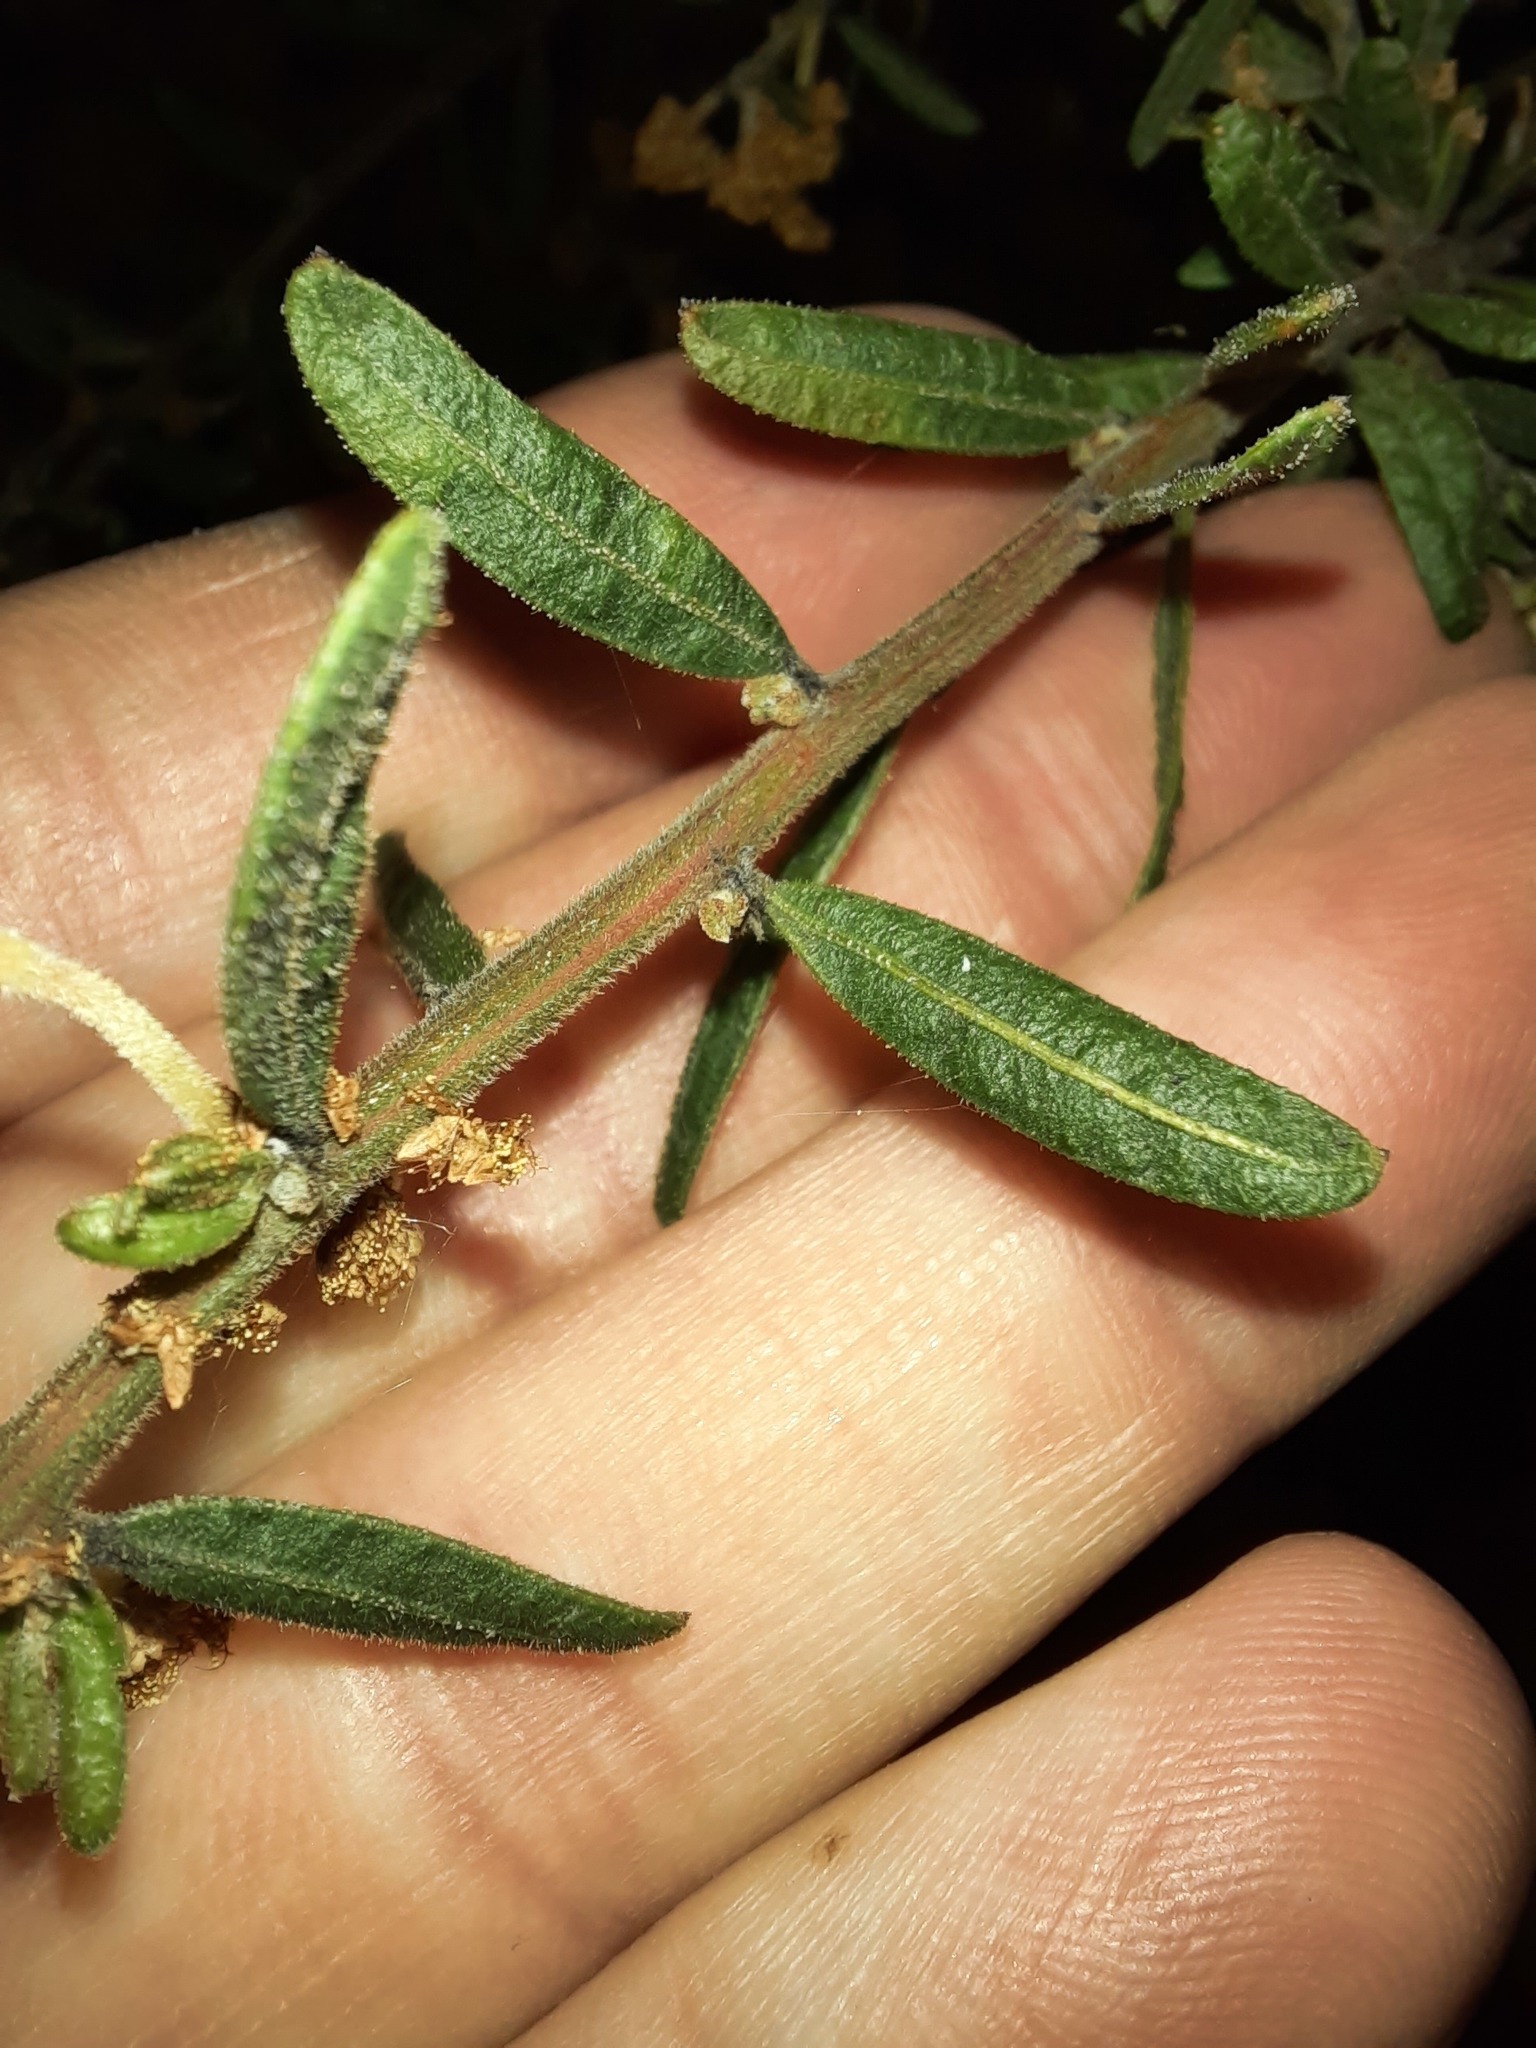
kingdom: Plantae
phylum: Tracheophyta
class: Magnoliopsida
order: Fabales
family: Fabaceae
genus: Acacia
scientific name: Acacia aspera
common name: Rough wattle
